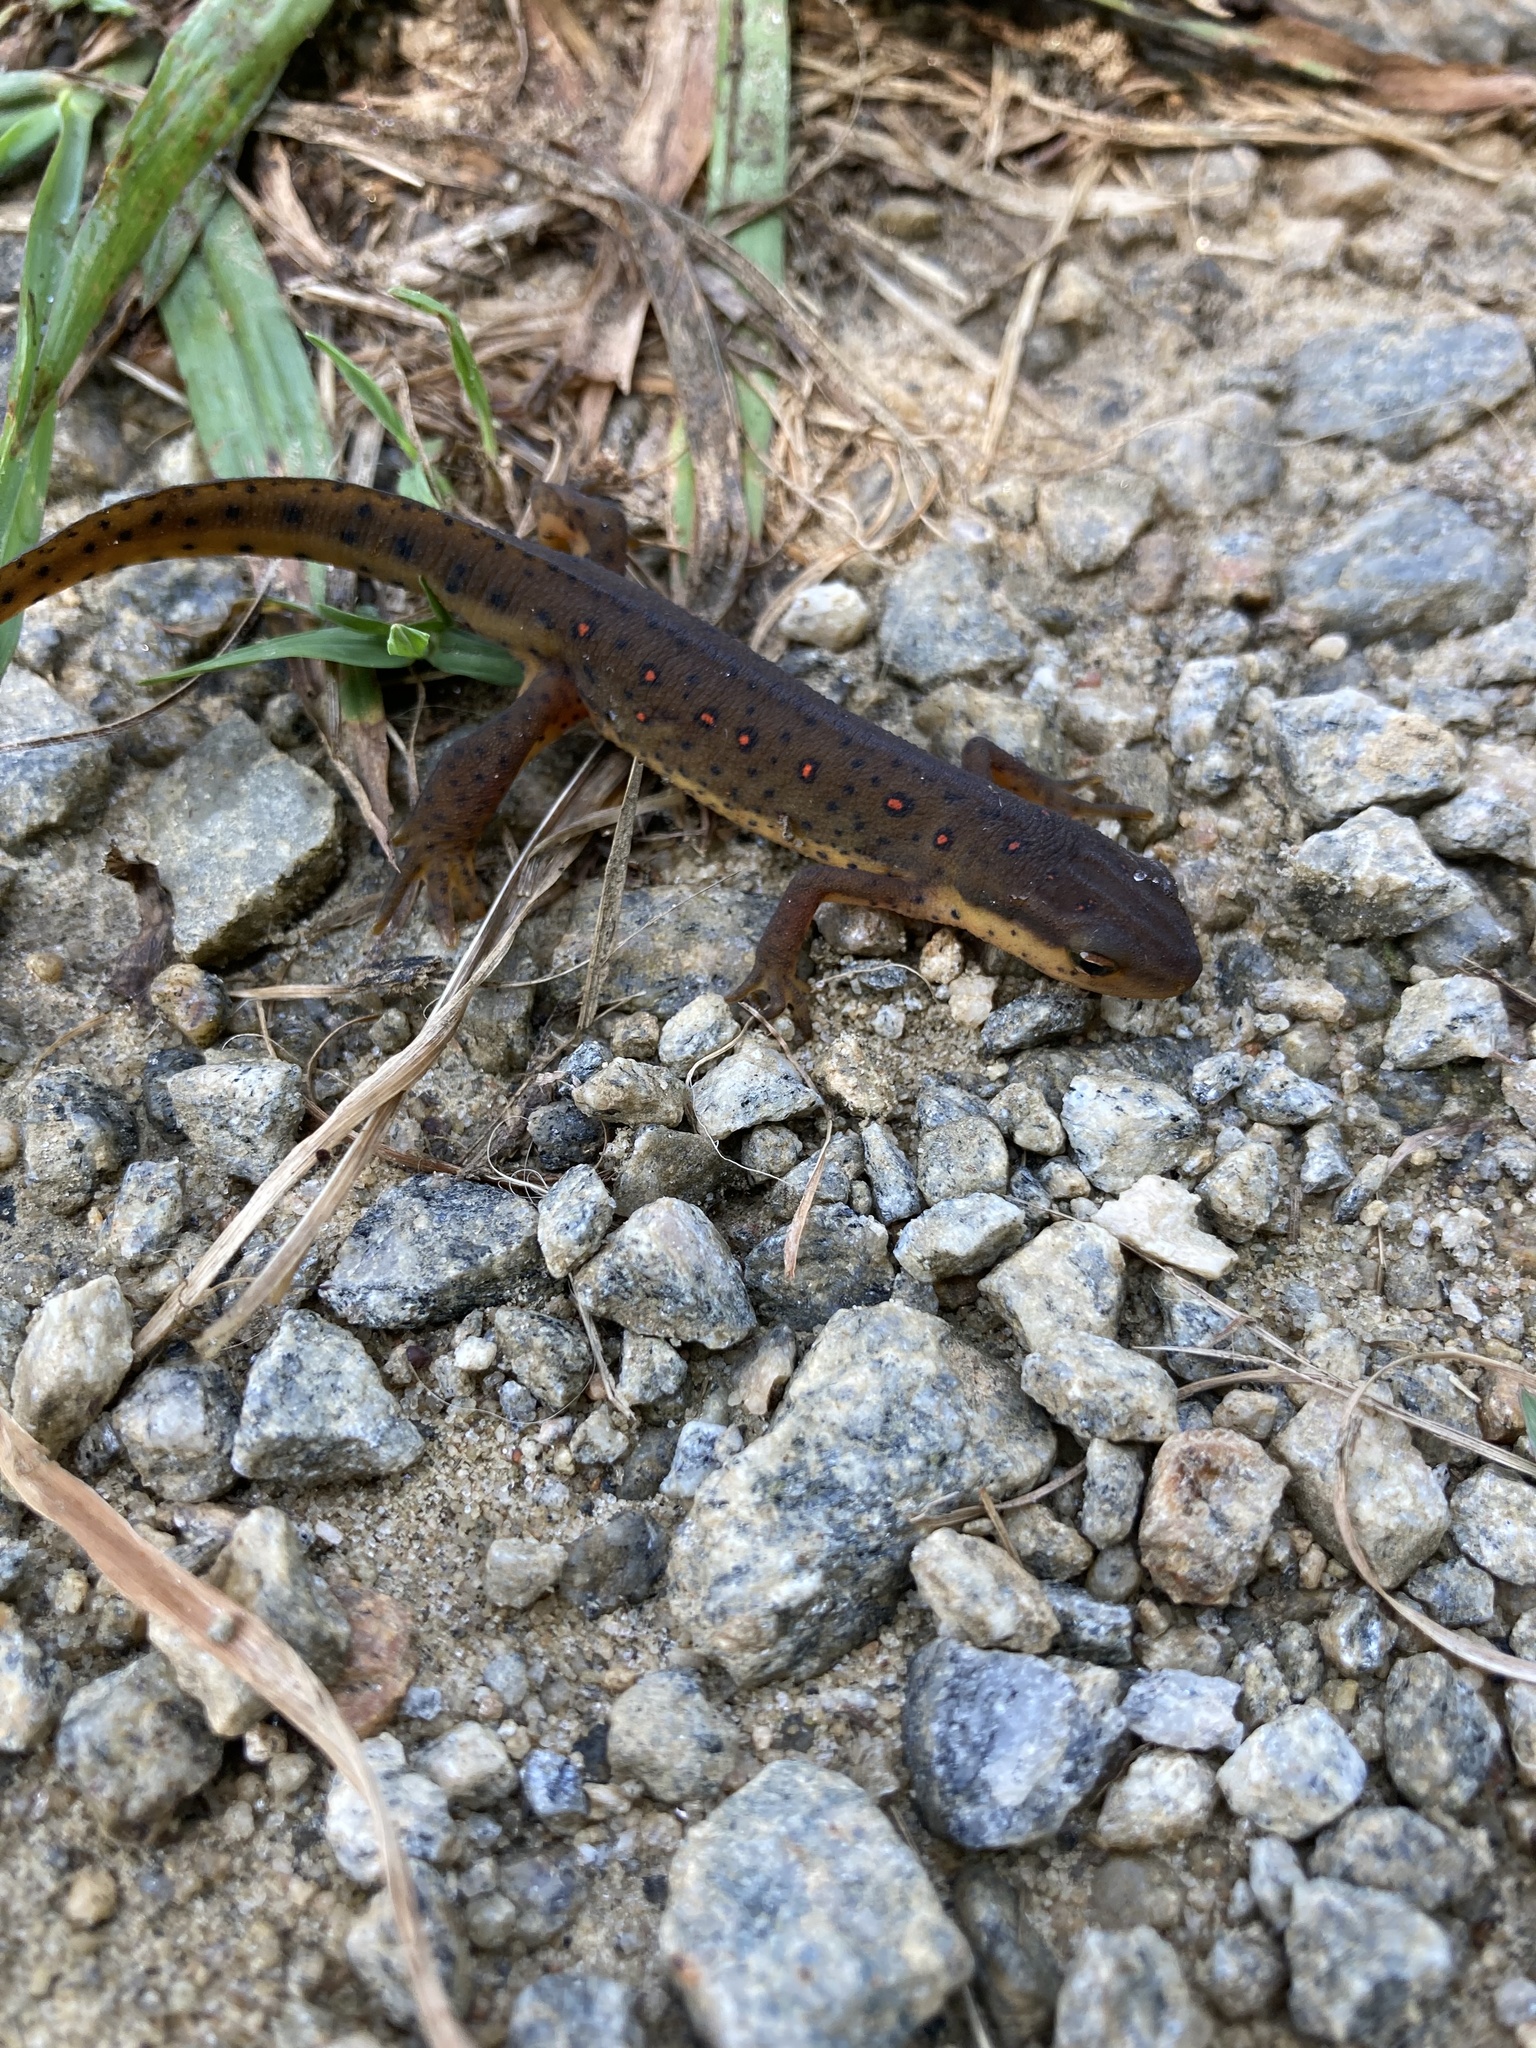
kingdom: Animalia
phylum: Chordata
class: Amphibia
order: Caudata
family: Salamandridae
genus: Notophthalmus
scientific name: Notophthalmus viridescens
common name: Eastern newt
